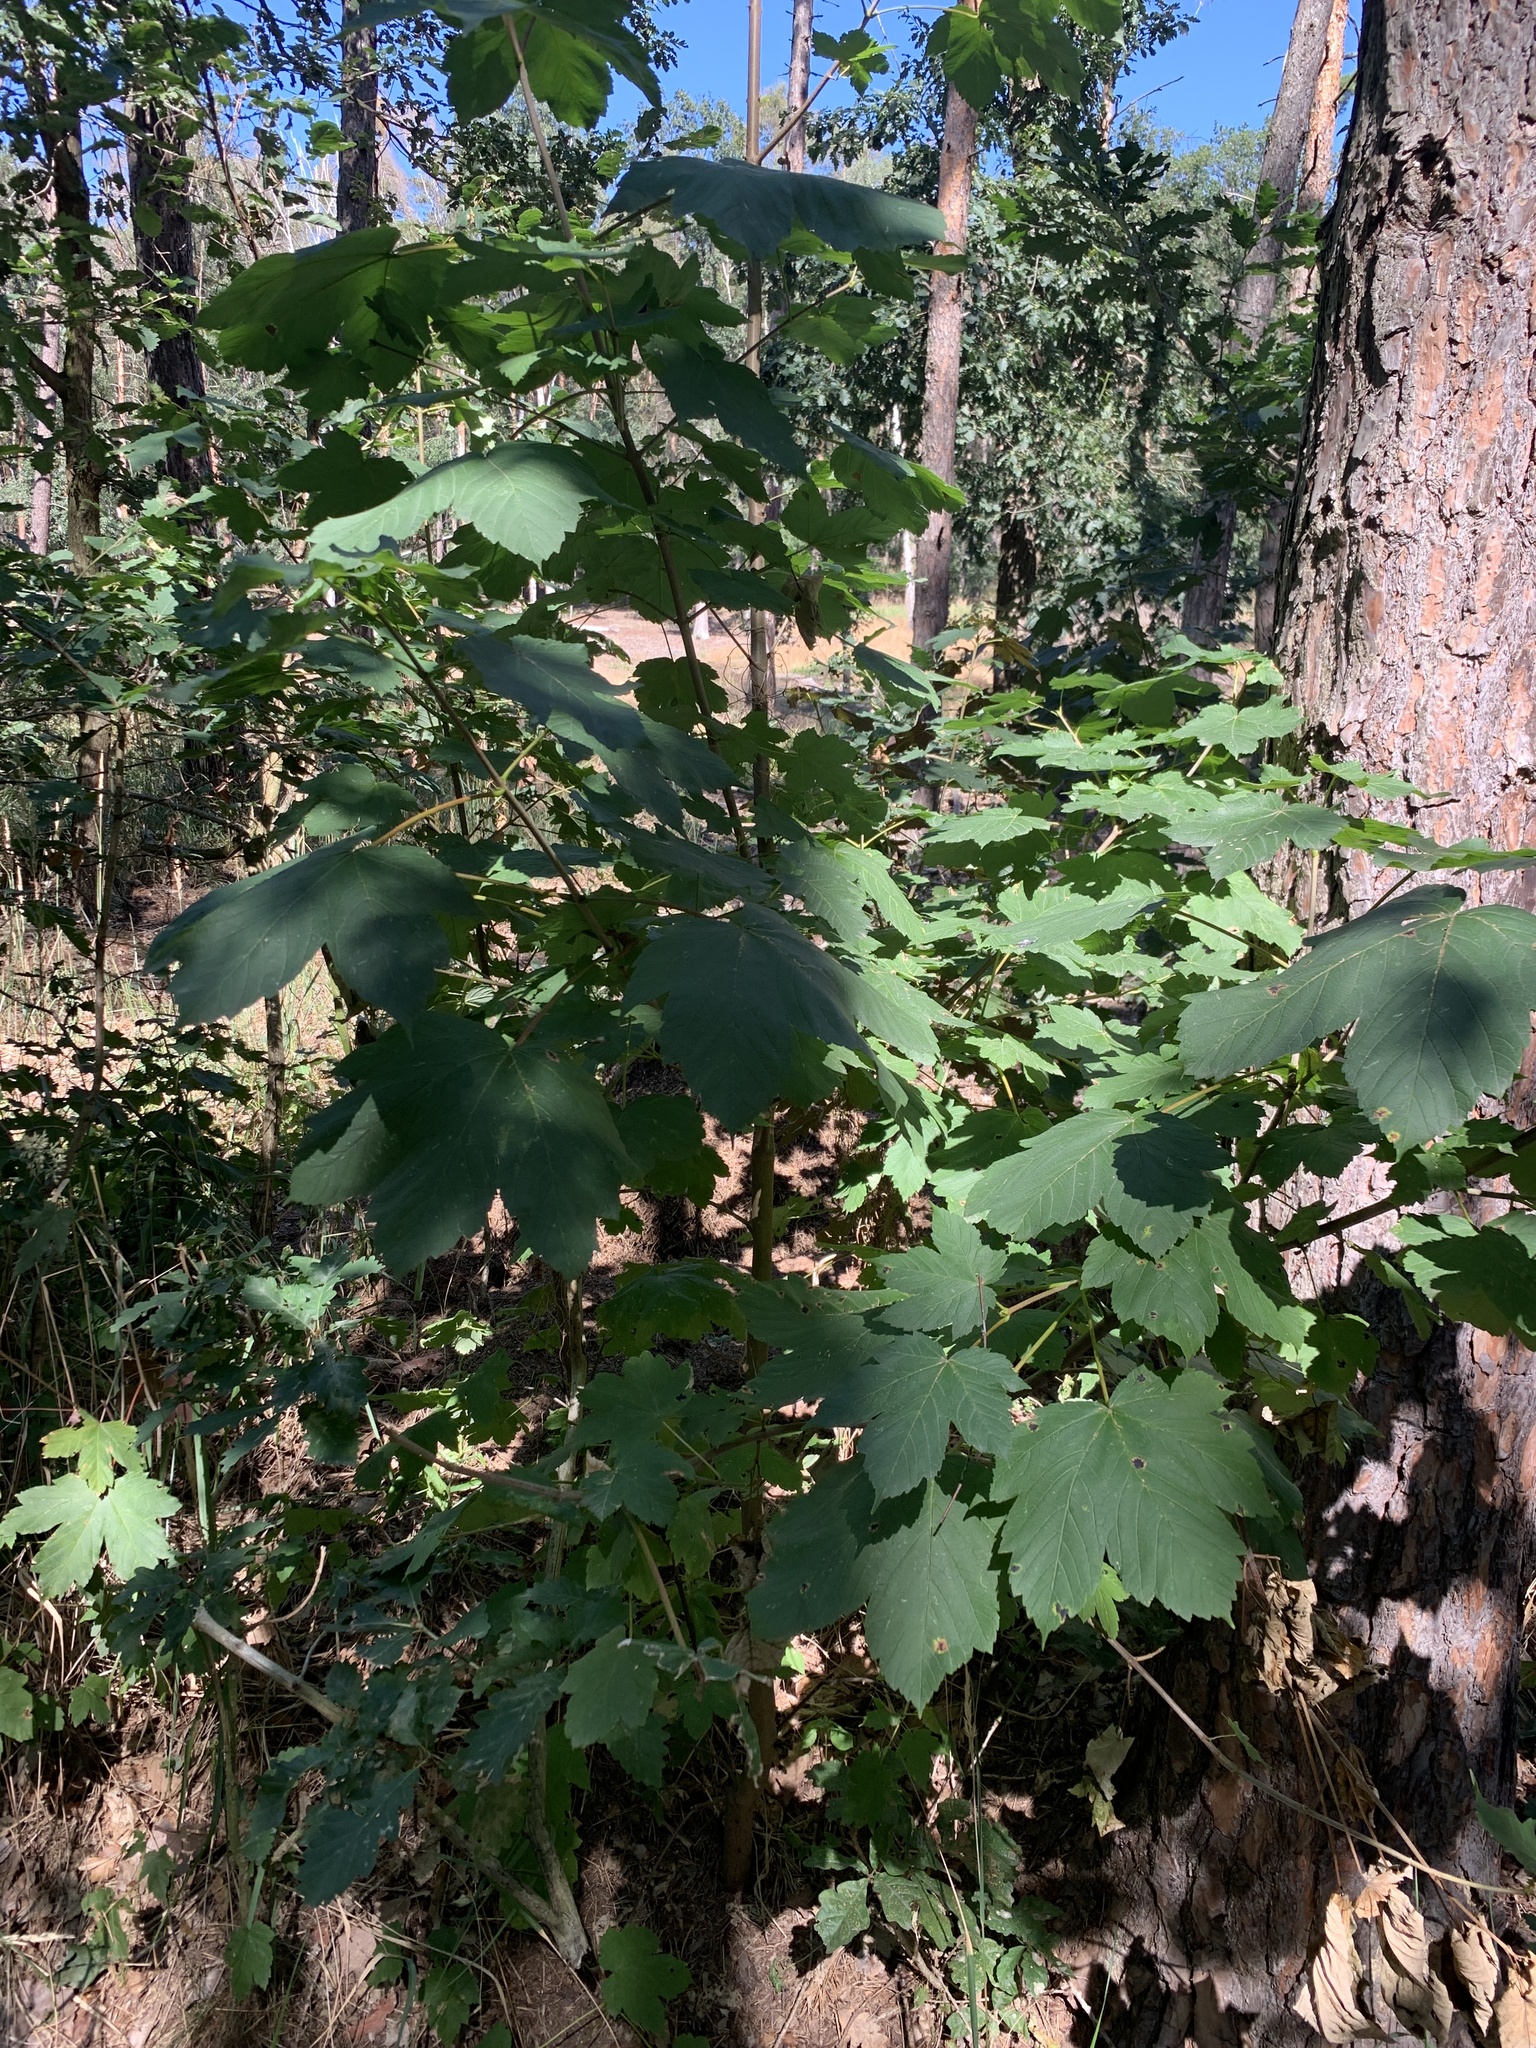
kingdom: Plantae
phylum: Tracheophyta
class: Magnoliopsida
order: Sapindales
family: Sapindaceae
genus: Acer
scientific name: Acer pseudoplatanus
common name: Sycamore
